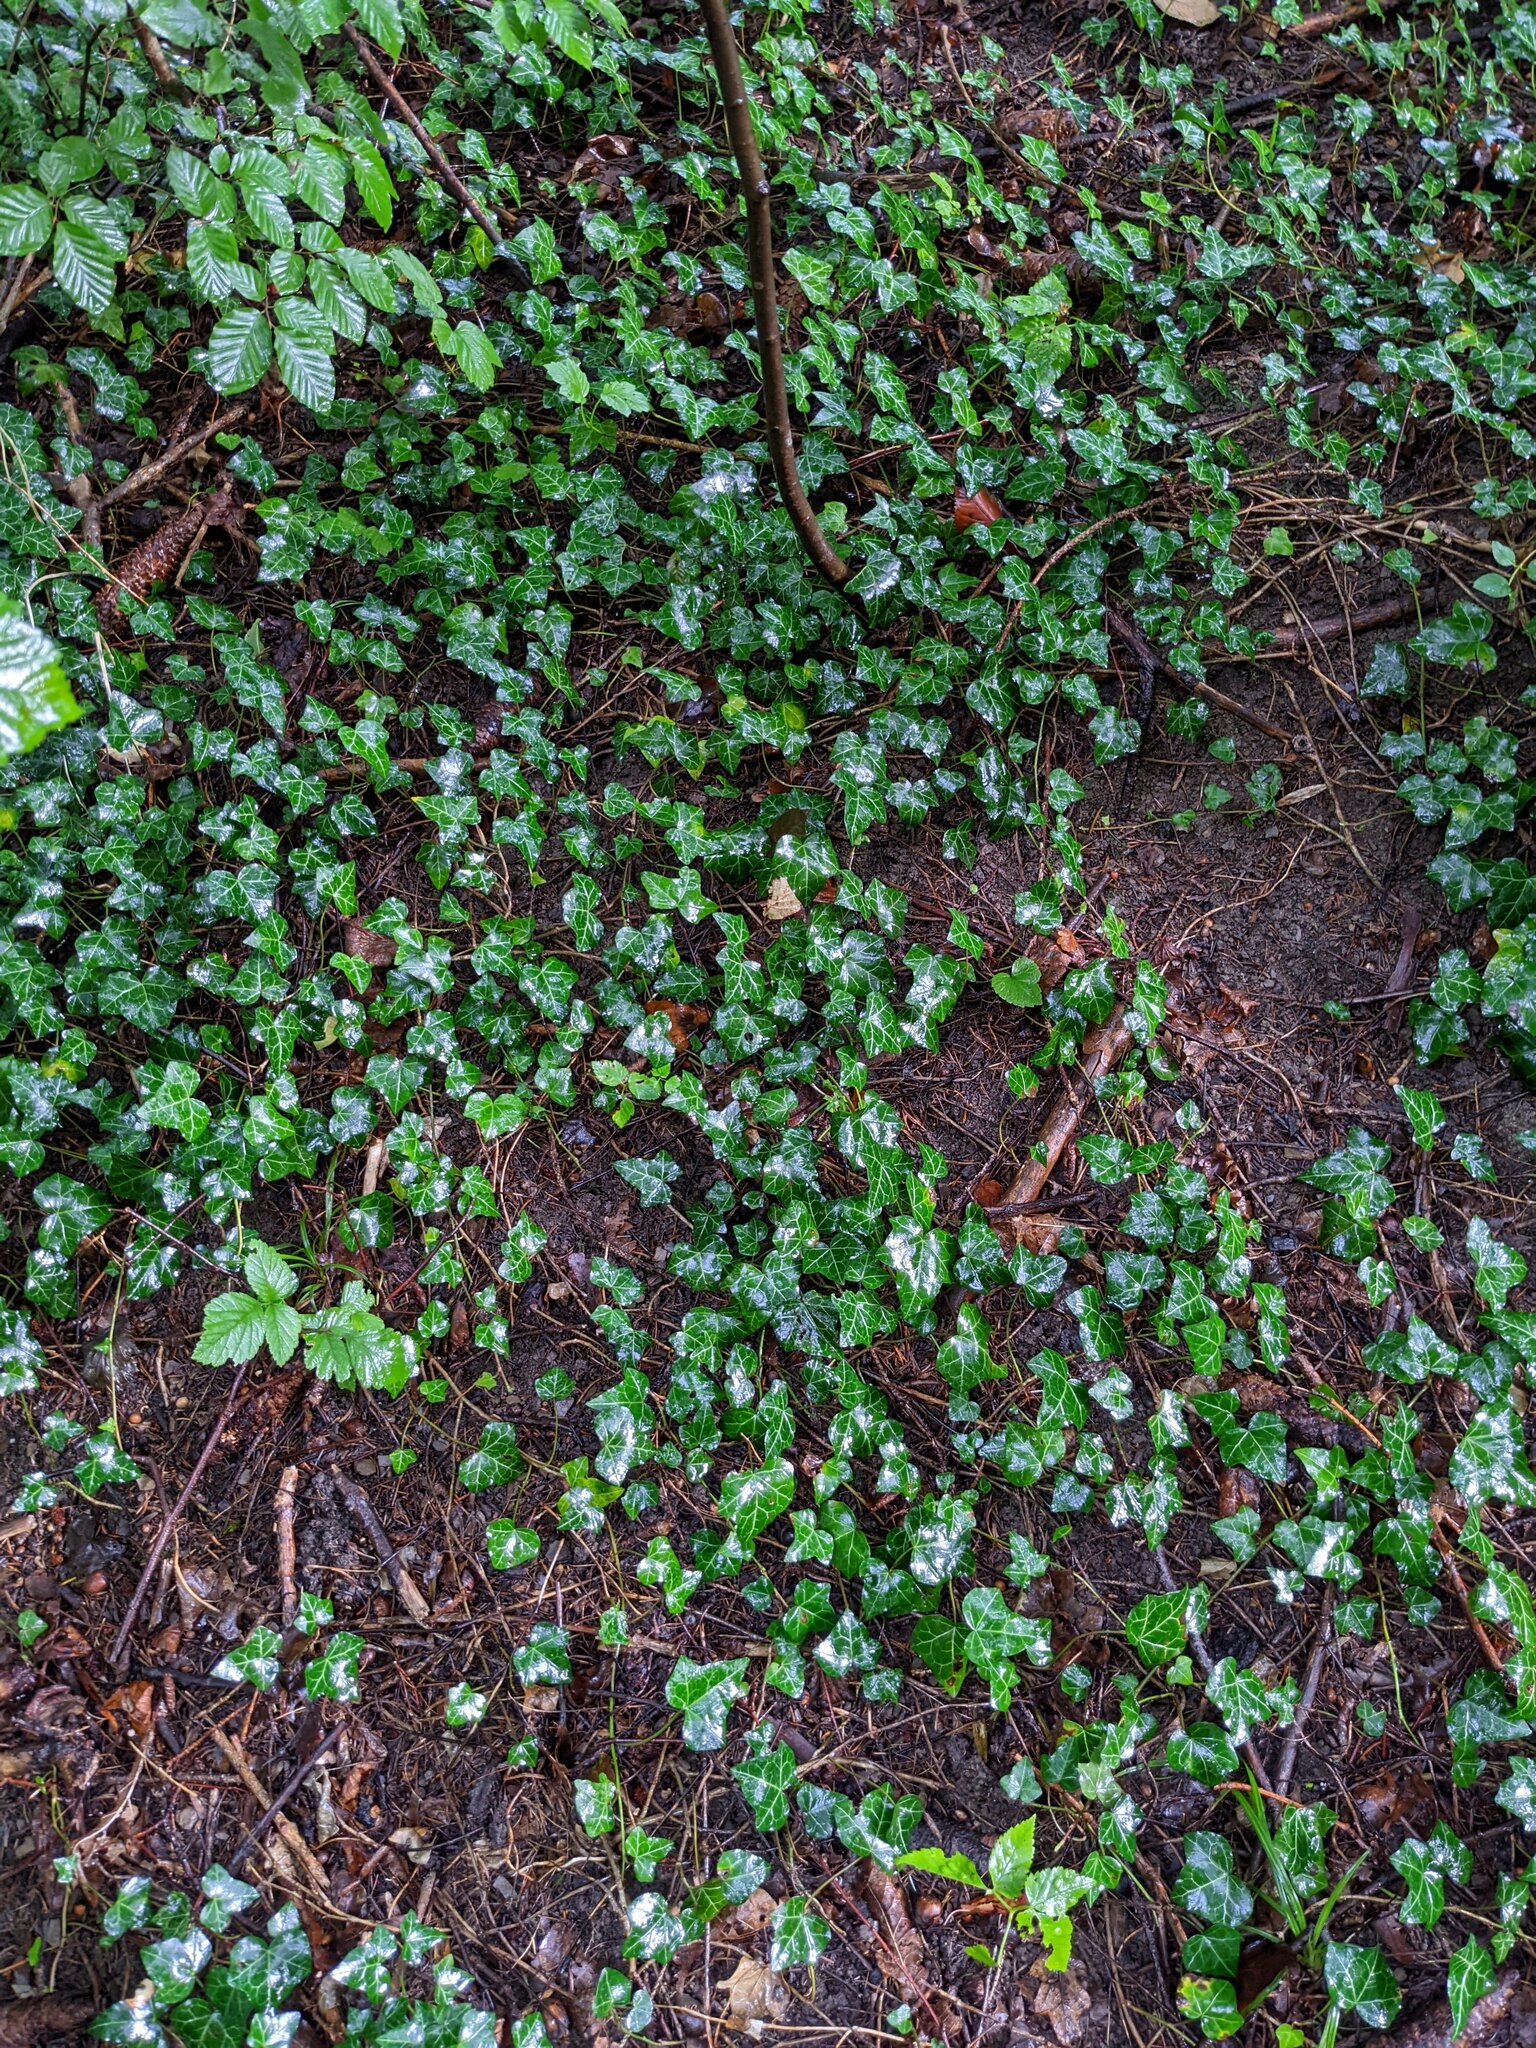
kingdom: Plantae
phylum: Tracheophyta
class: Magnoliopsida
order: Apiales
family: Araliaceae
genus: Hedera
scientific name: Hedera helix
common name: Ivy
